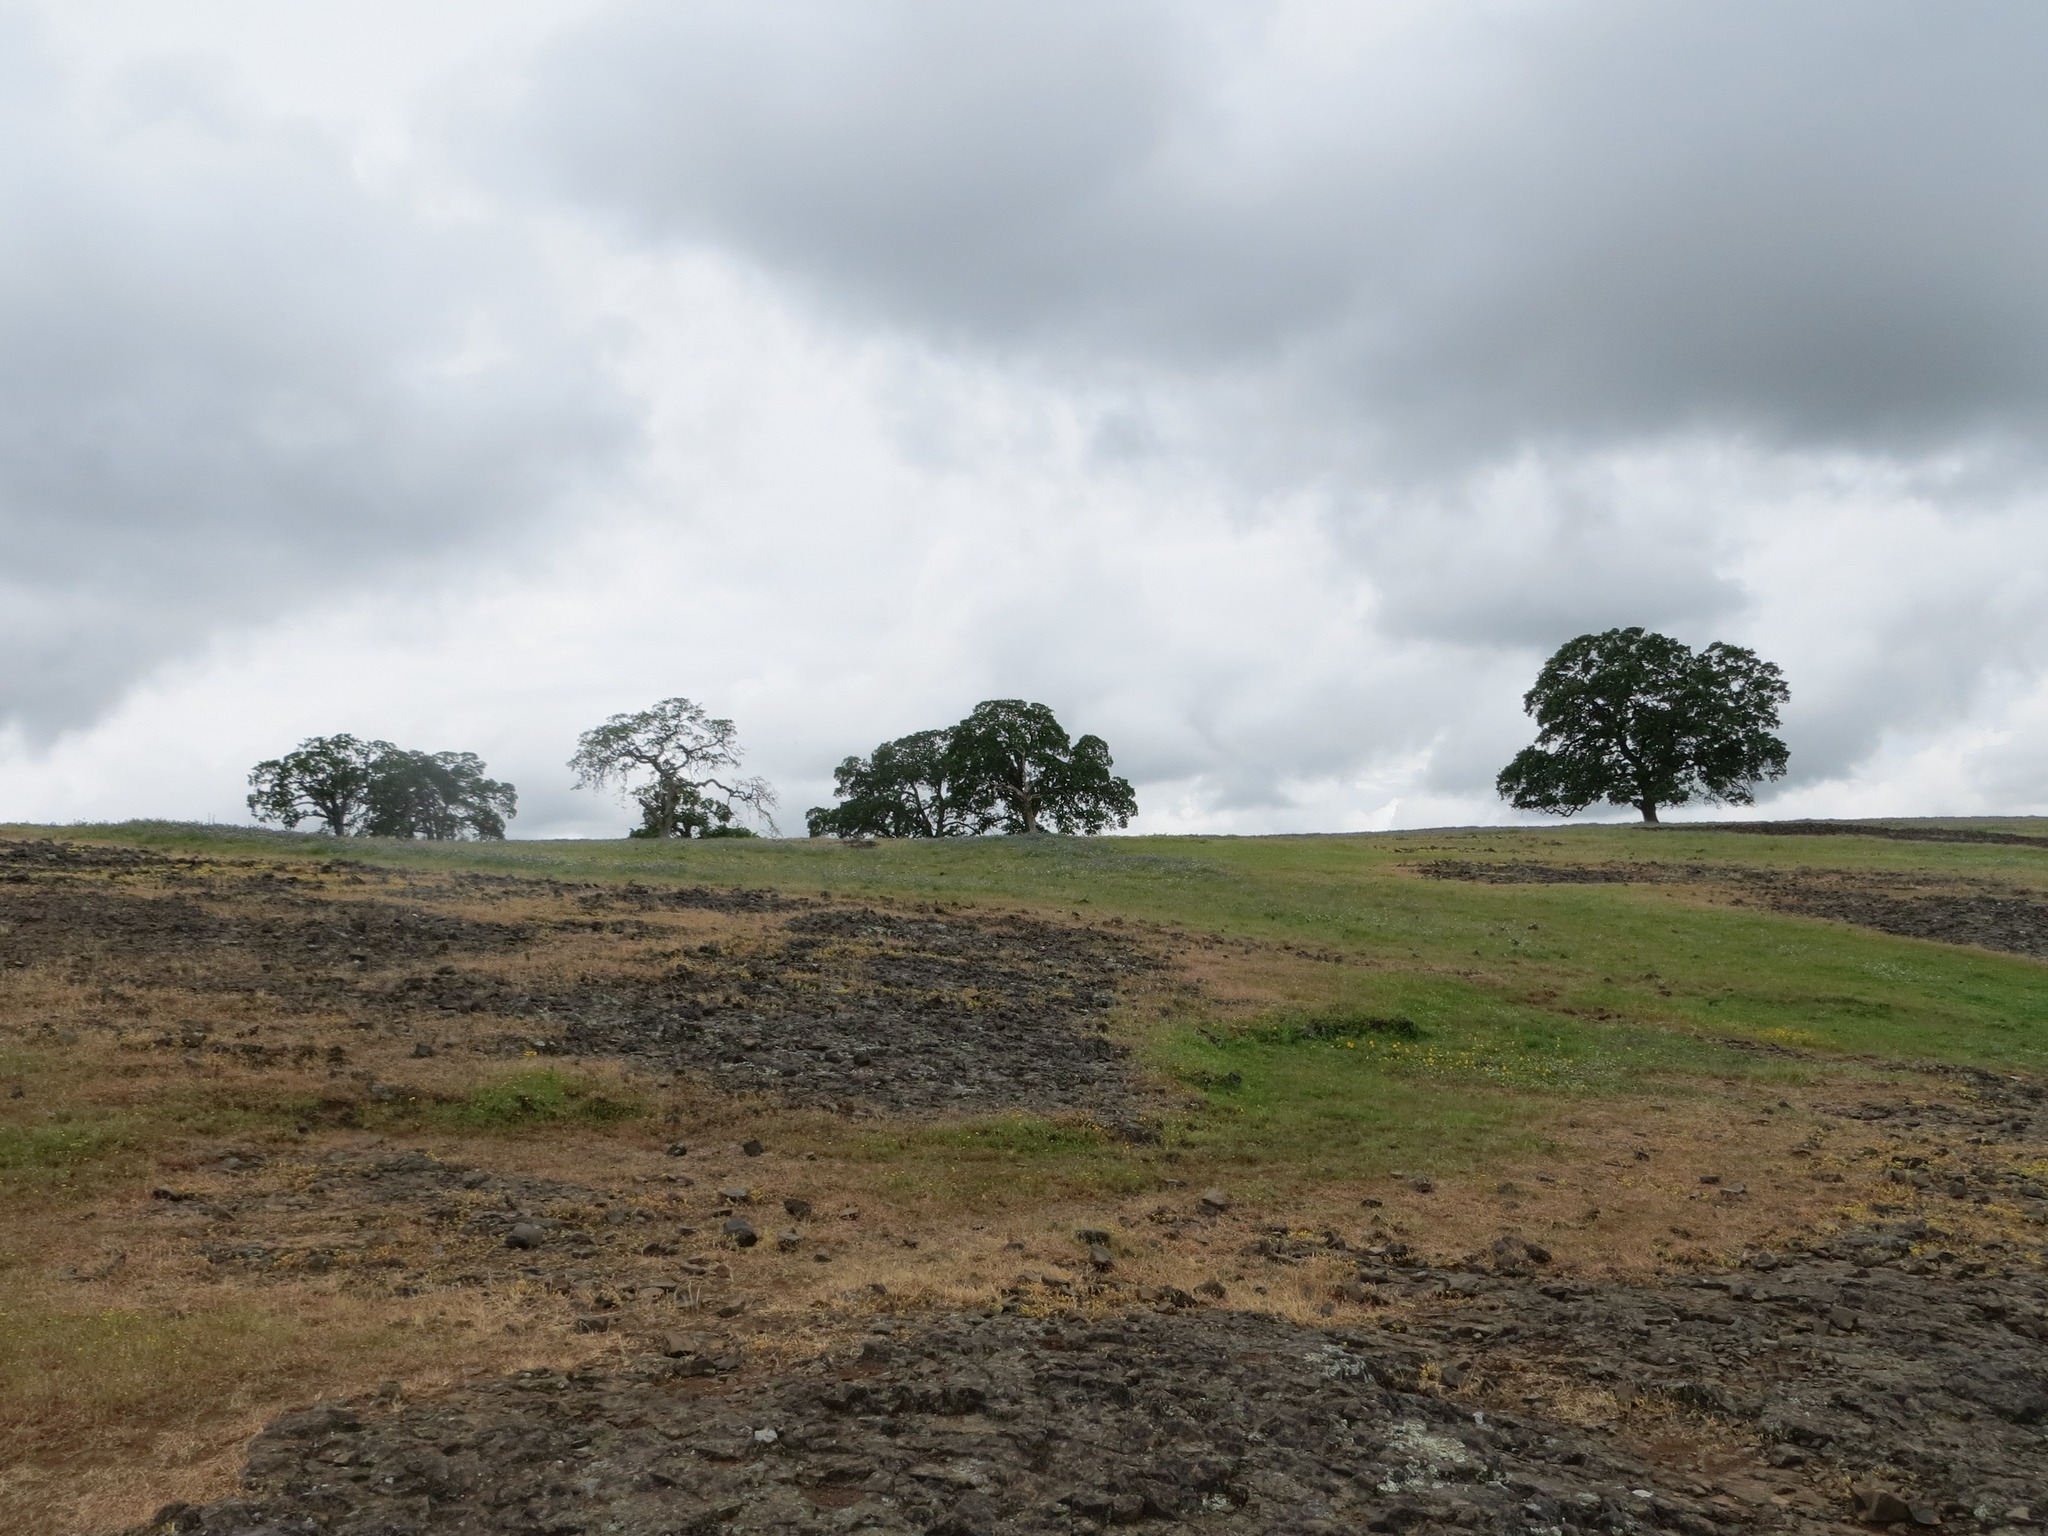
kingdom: Plantae
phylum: Tracheophyta
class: Magnoliopsida
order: Fagales
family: Fagaceae
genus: Quercus
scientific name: Quercus lobata
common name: Valley oak
